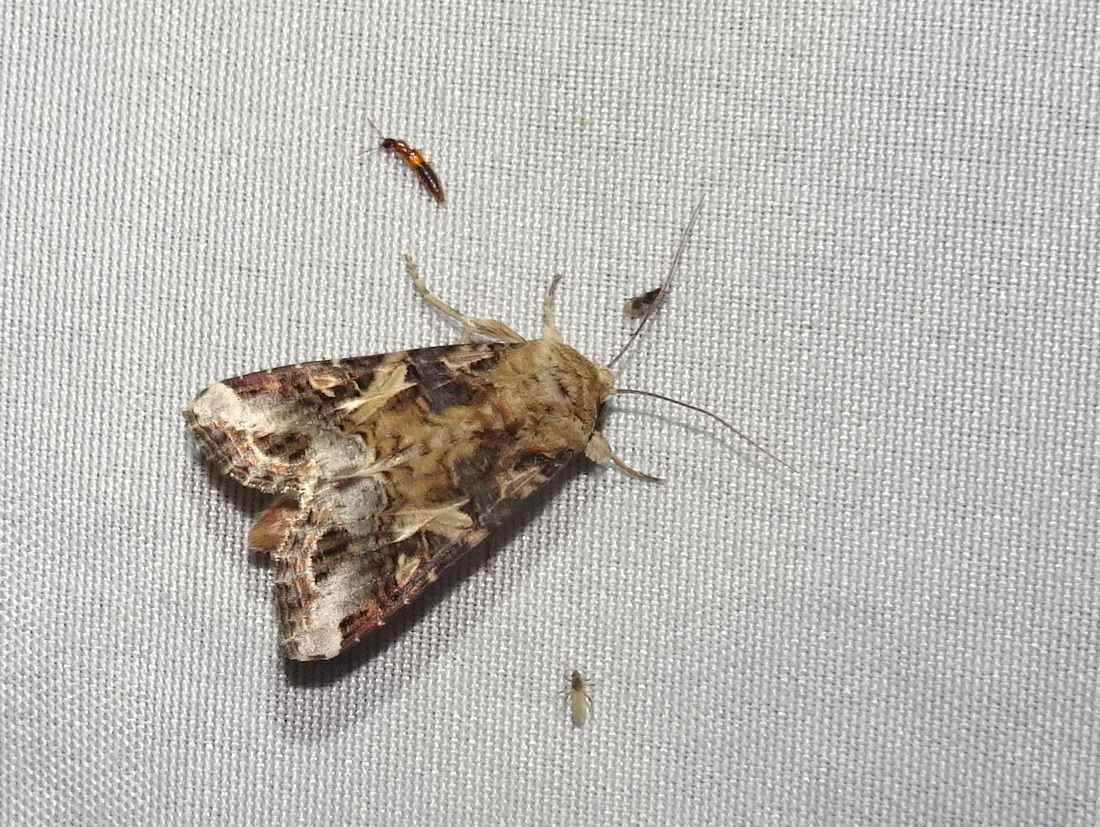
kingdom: Animalia
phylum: Arthropoda
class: Insecta
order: Lepidoptera
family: Noctuidae
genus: Spodoptera
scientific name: Spodoptera ornithogalli
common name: Yellow-striped armyworm
